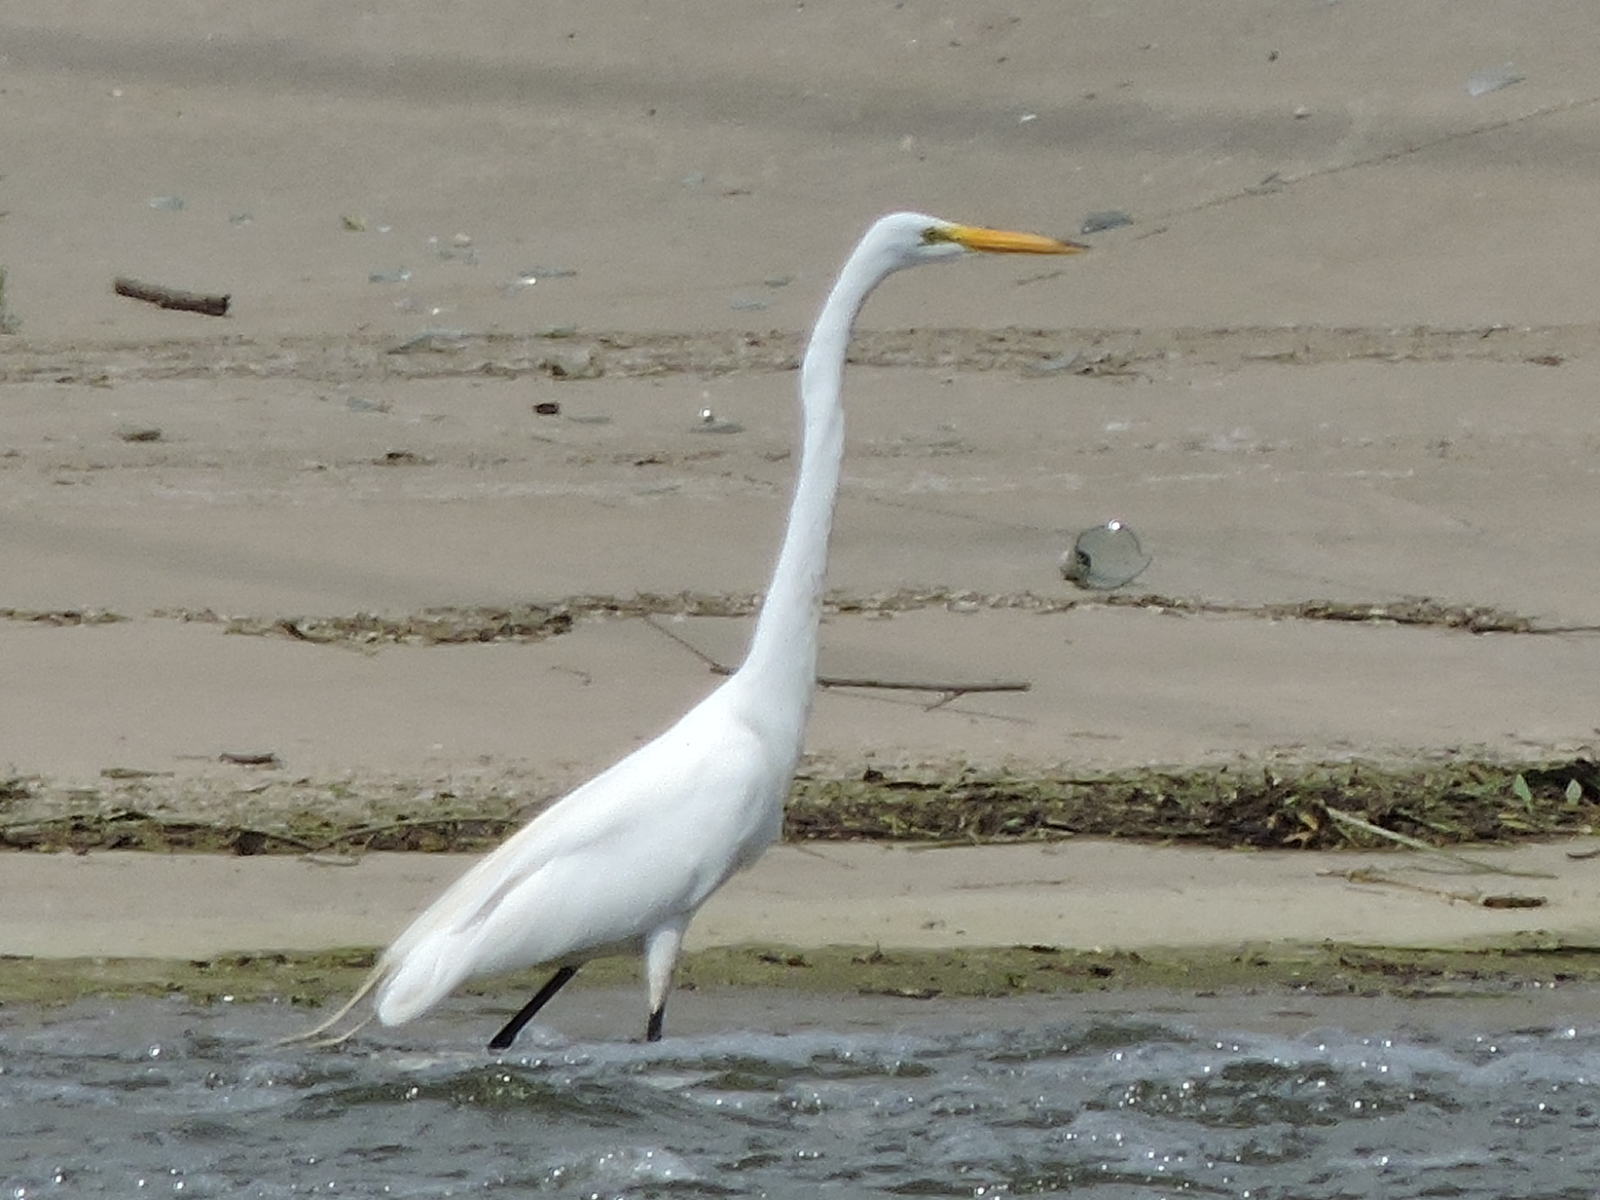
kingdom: Animalia
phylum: Chordata
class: Aves
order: Pelecaniformes
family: Ardeidae
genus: Ardea
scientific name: Ardea alba
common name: Great egret
